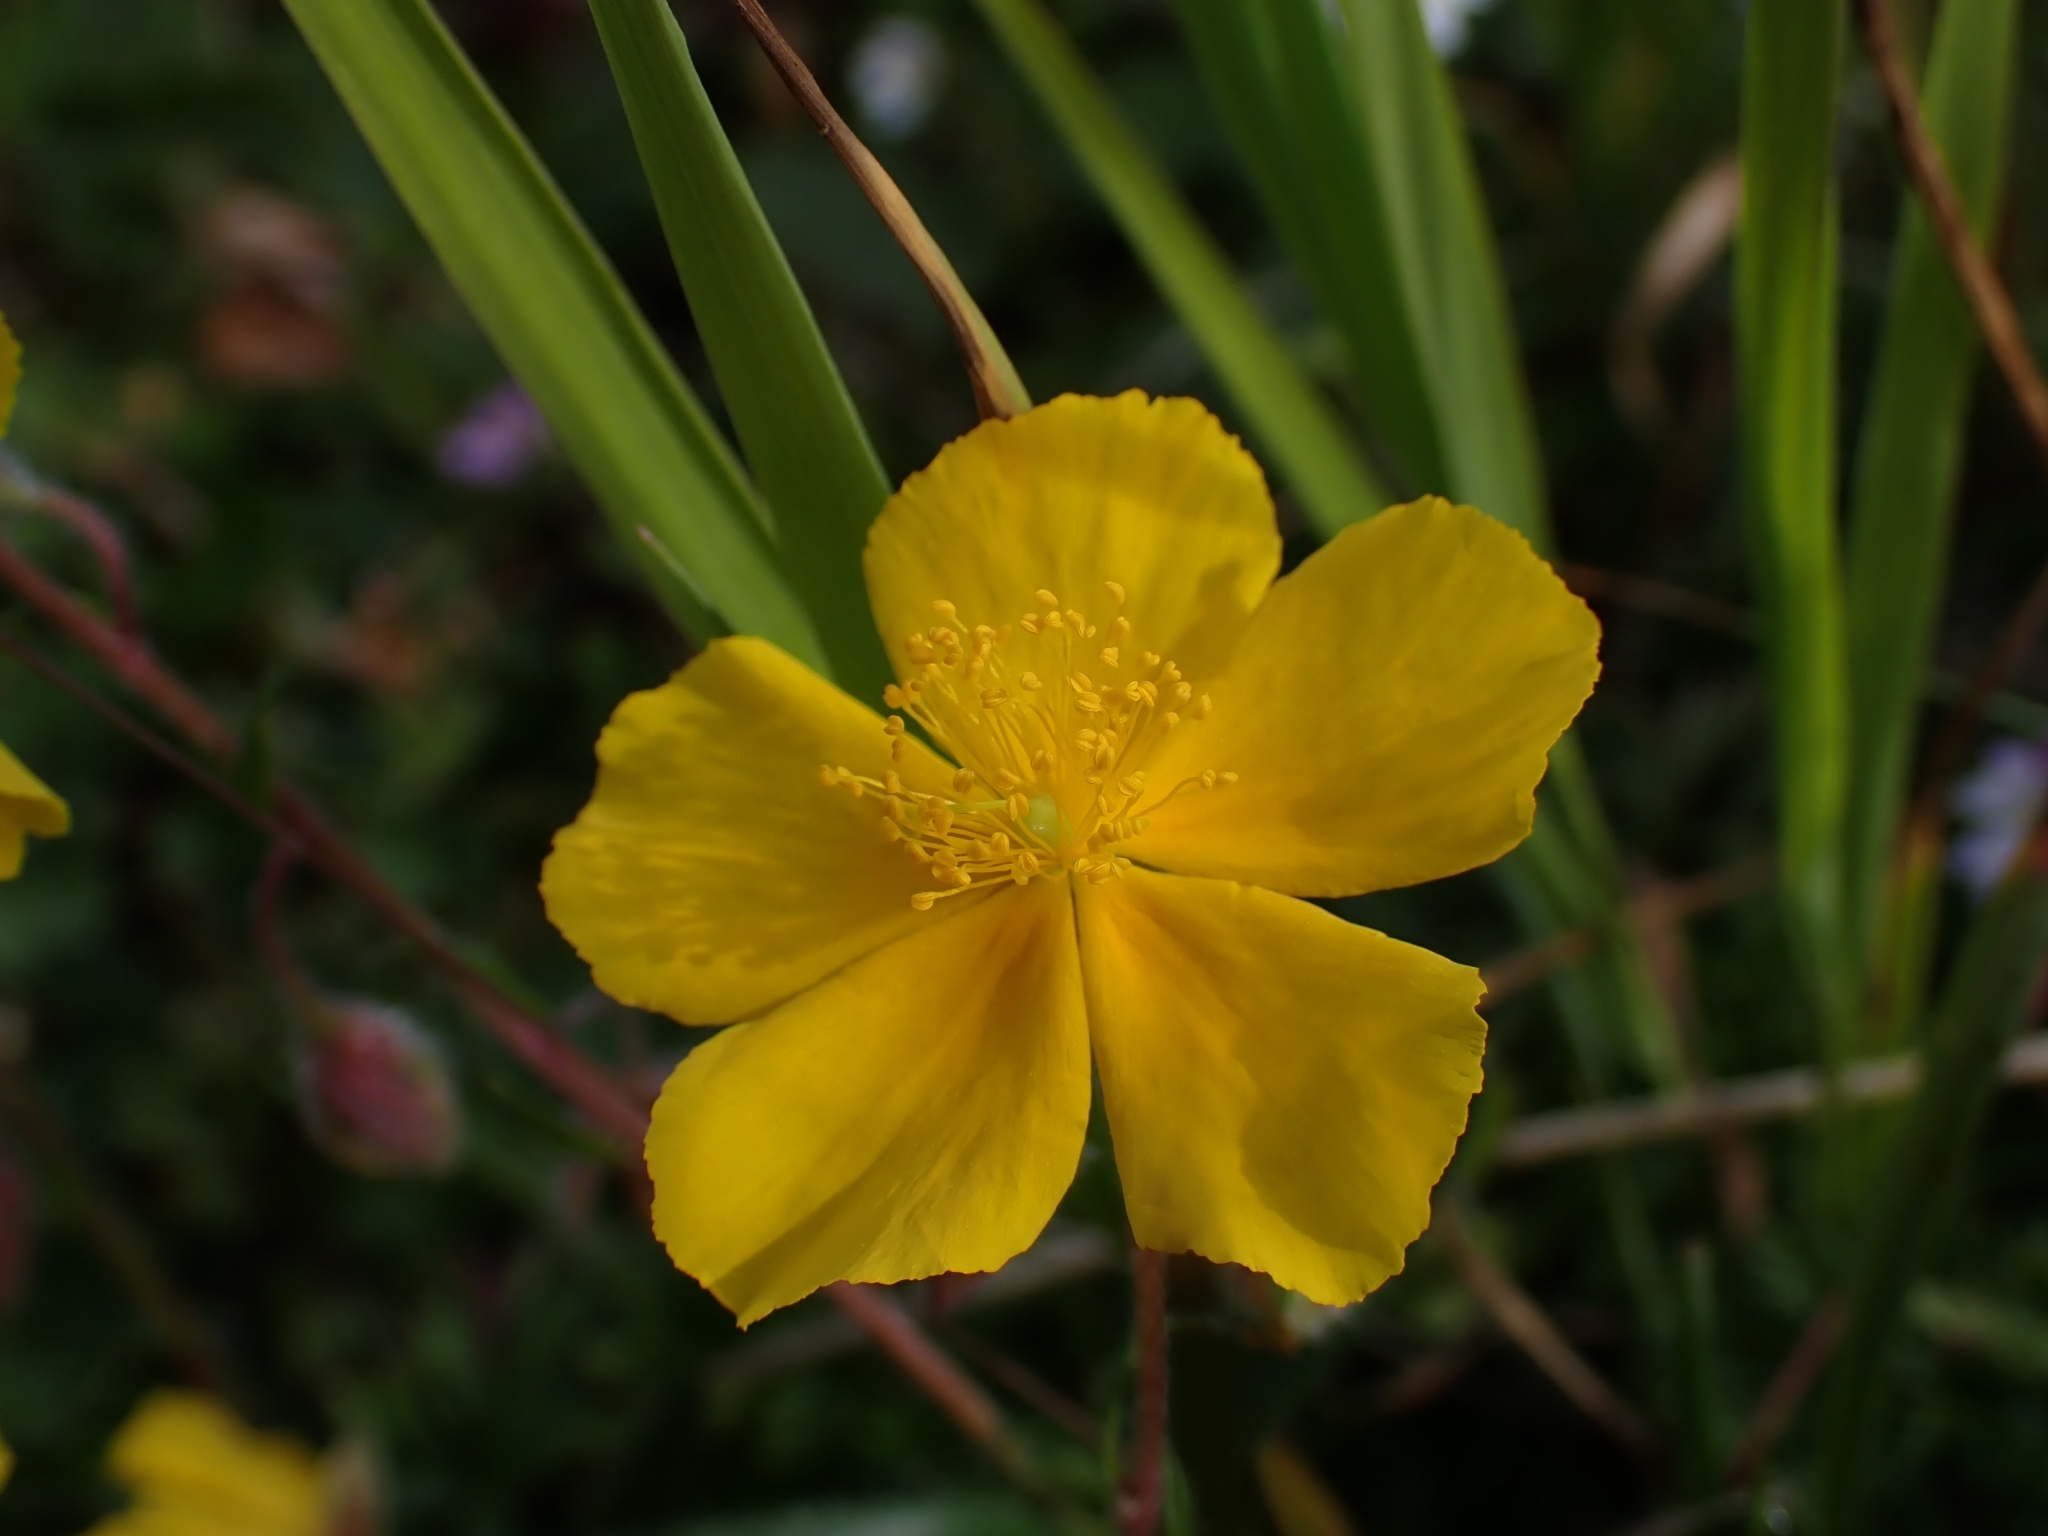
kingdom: Plantae
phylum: Tracheophyta
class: Magnoliopsida
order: Malvales
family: Cistaceae
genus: Helianthemum
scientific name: Helianthemum nummularium
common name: Common rock-rose
